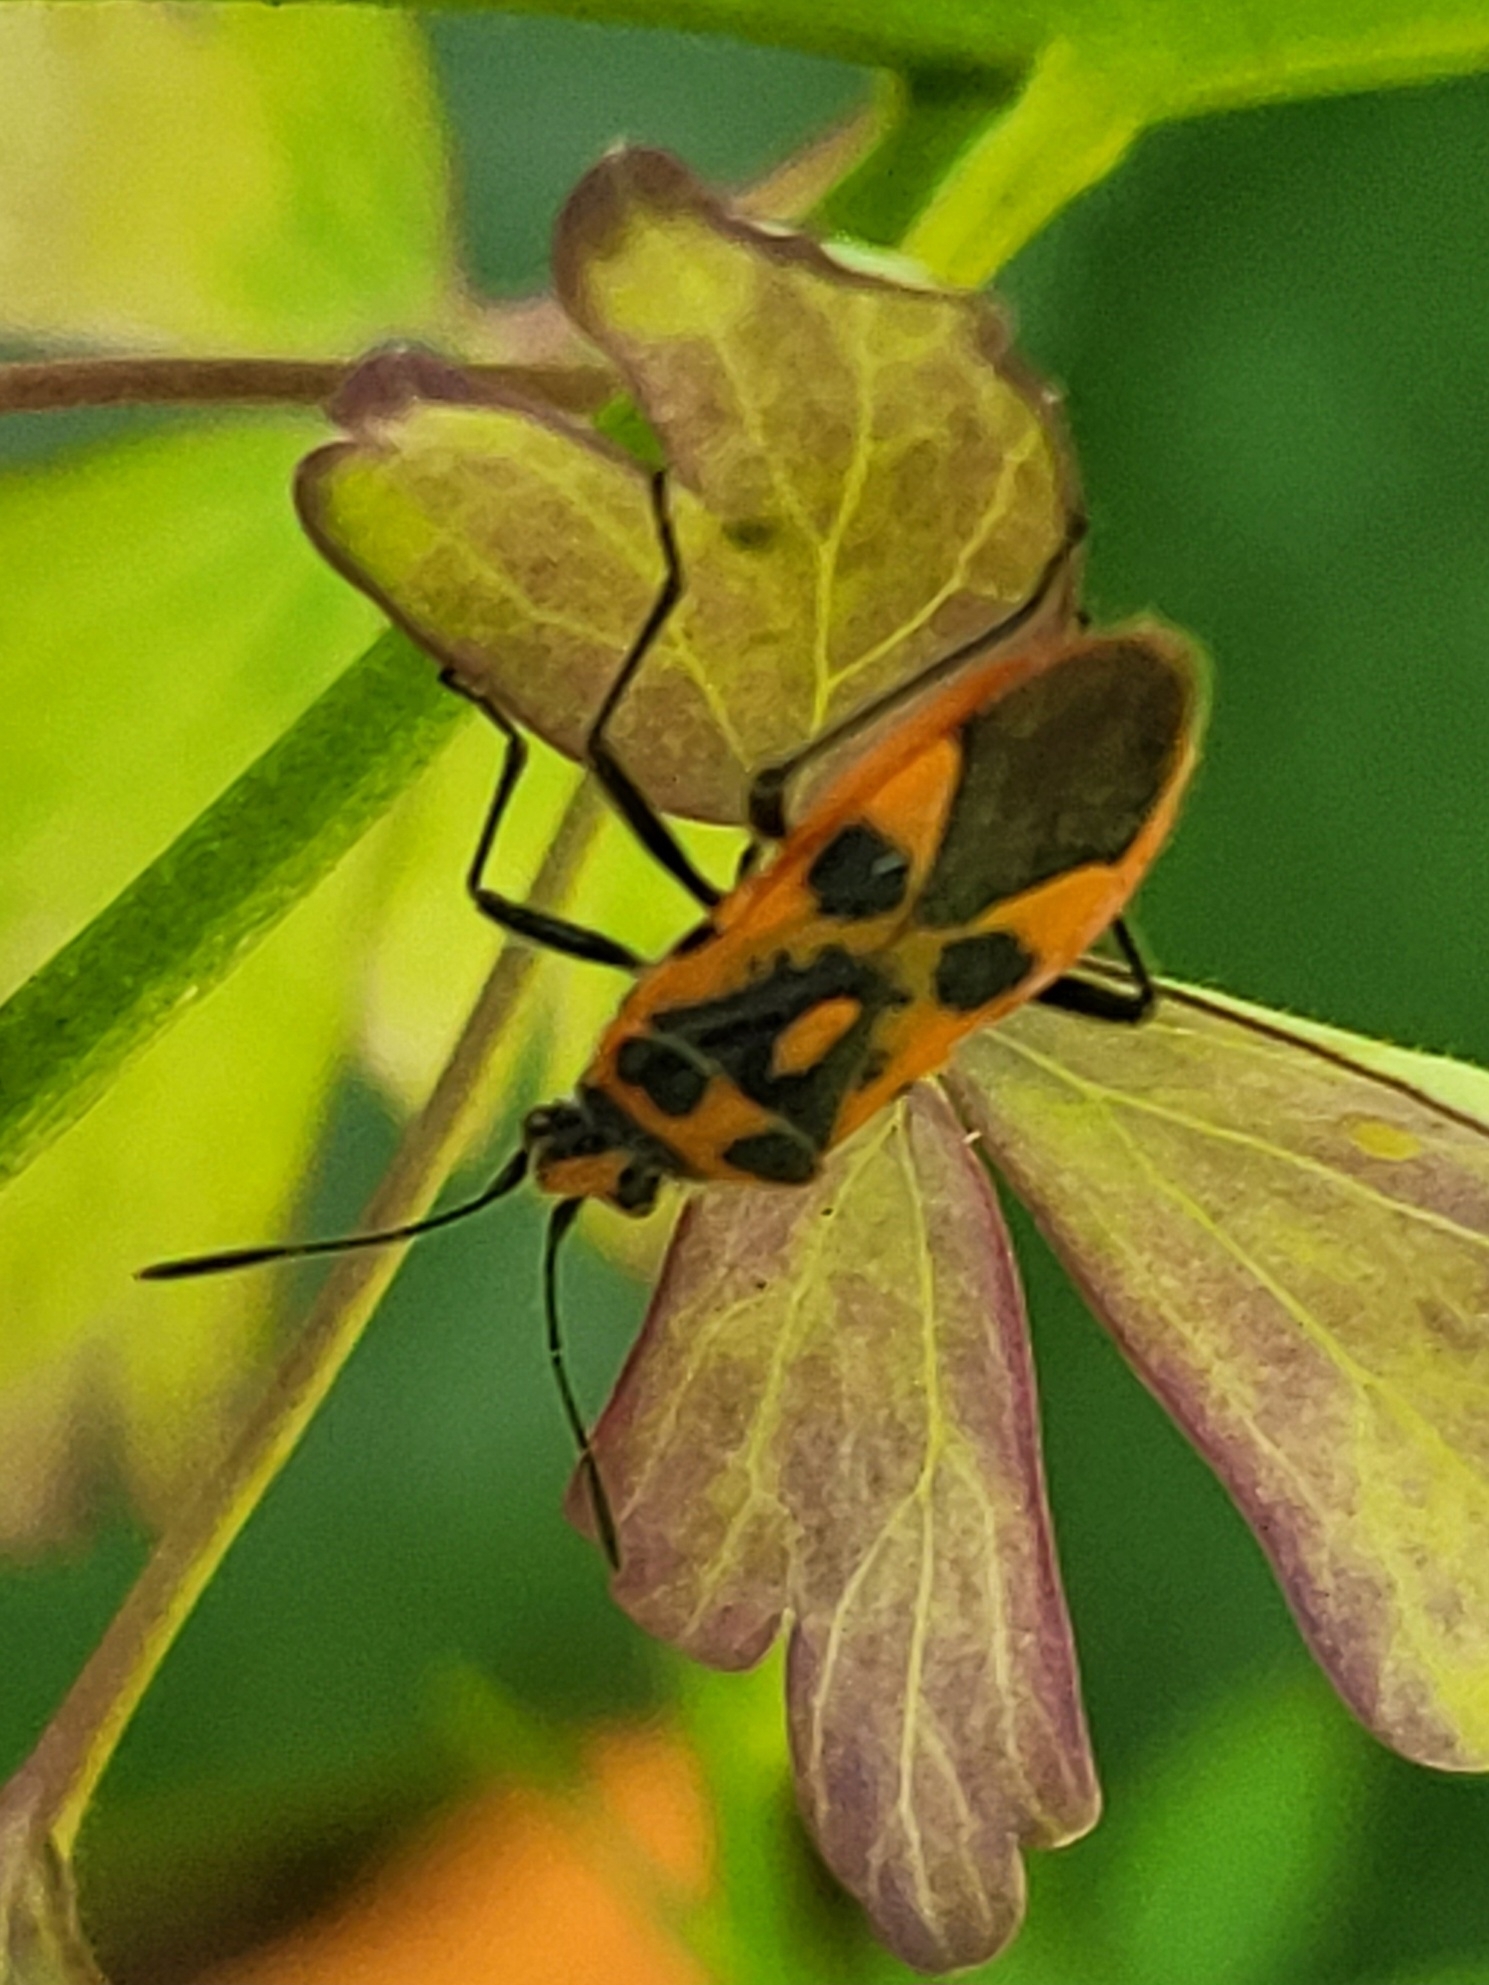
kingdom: Animalia
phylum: Arthropoda
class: Insecta
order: Hemiptera
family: Rhopalidae
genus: Corizus
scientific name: Corizus hyoscyami
